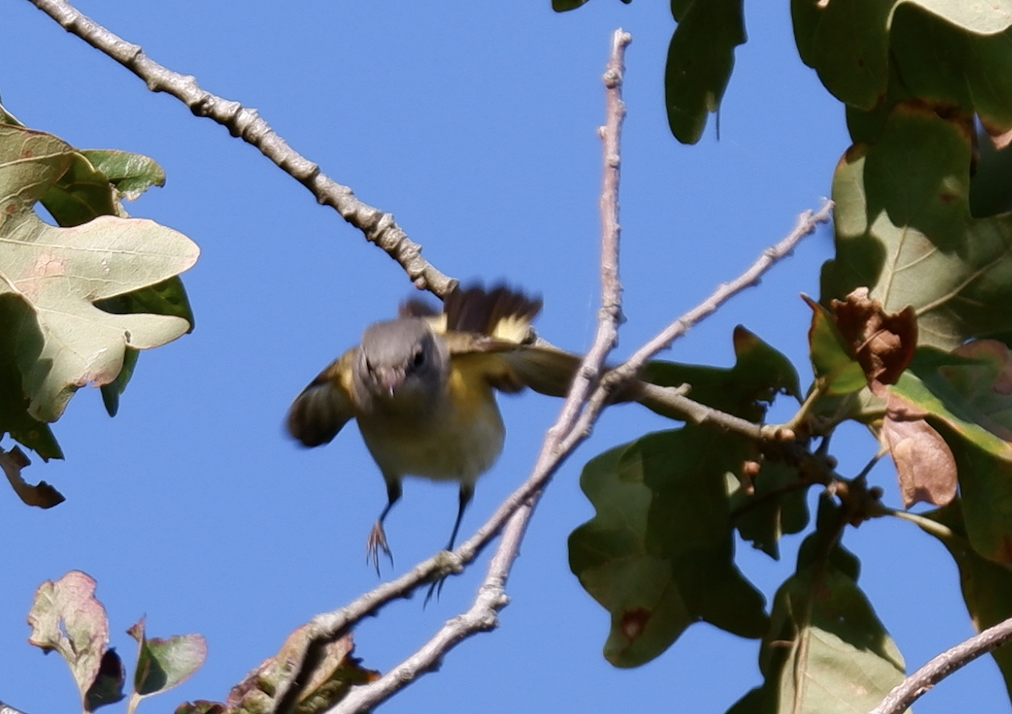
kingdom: Animalia
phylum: Chordata
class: Aves
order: Passeriformes
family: Parulidae
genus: Setophaga
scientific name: Setophaga ruticilla
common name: American redstart
